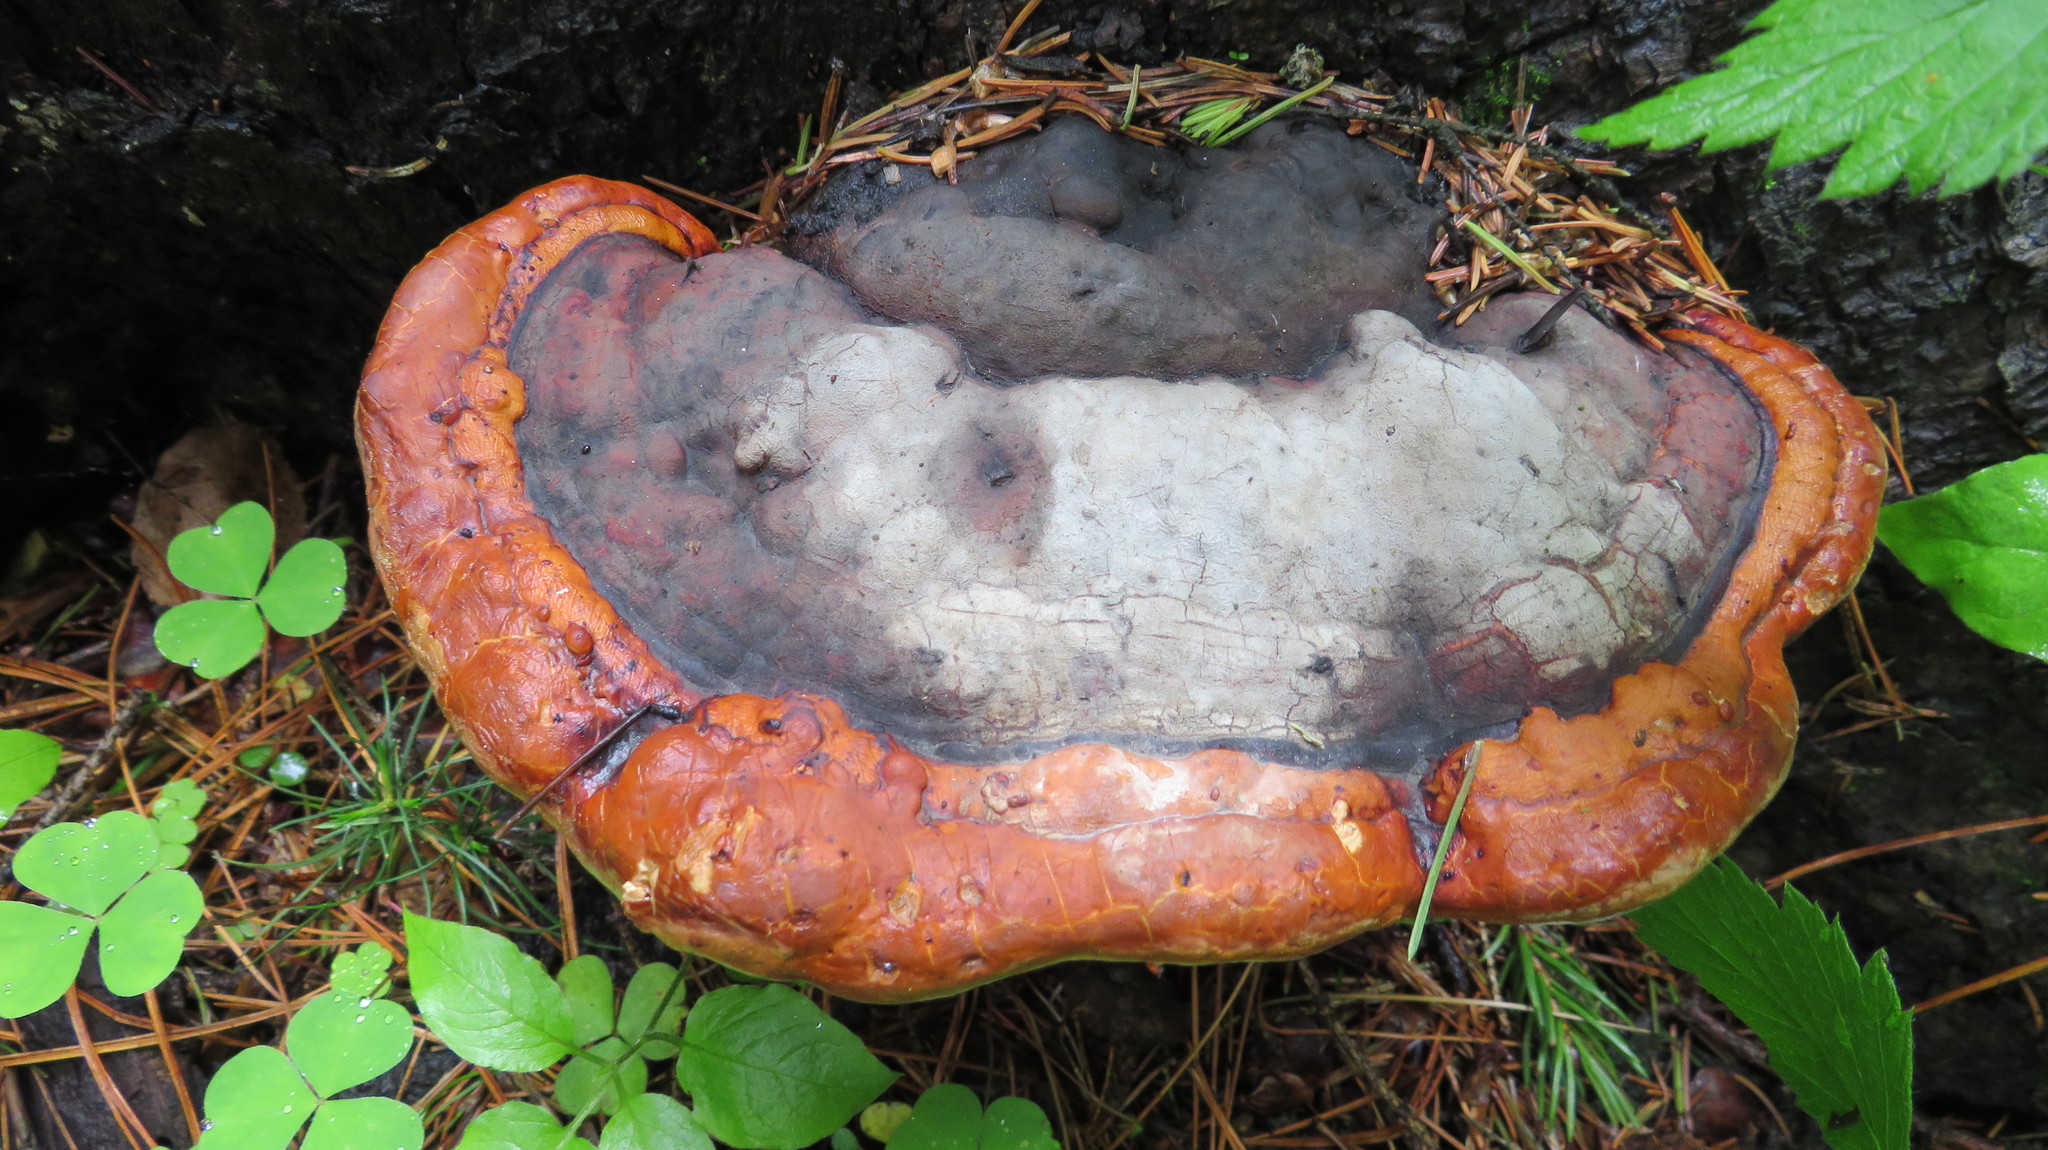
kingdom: Fungi
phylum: Basidiomycota
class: Agaricomycetes
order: Polyporales
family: Fomitopsidaceae
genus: Fomitopsis
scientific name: Fomitopsis pinicola
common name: Red-belted bracket
